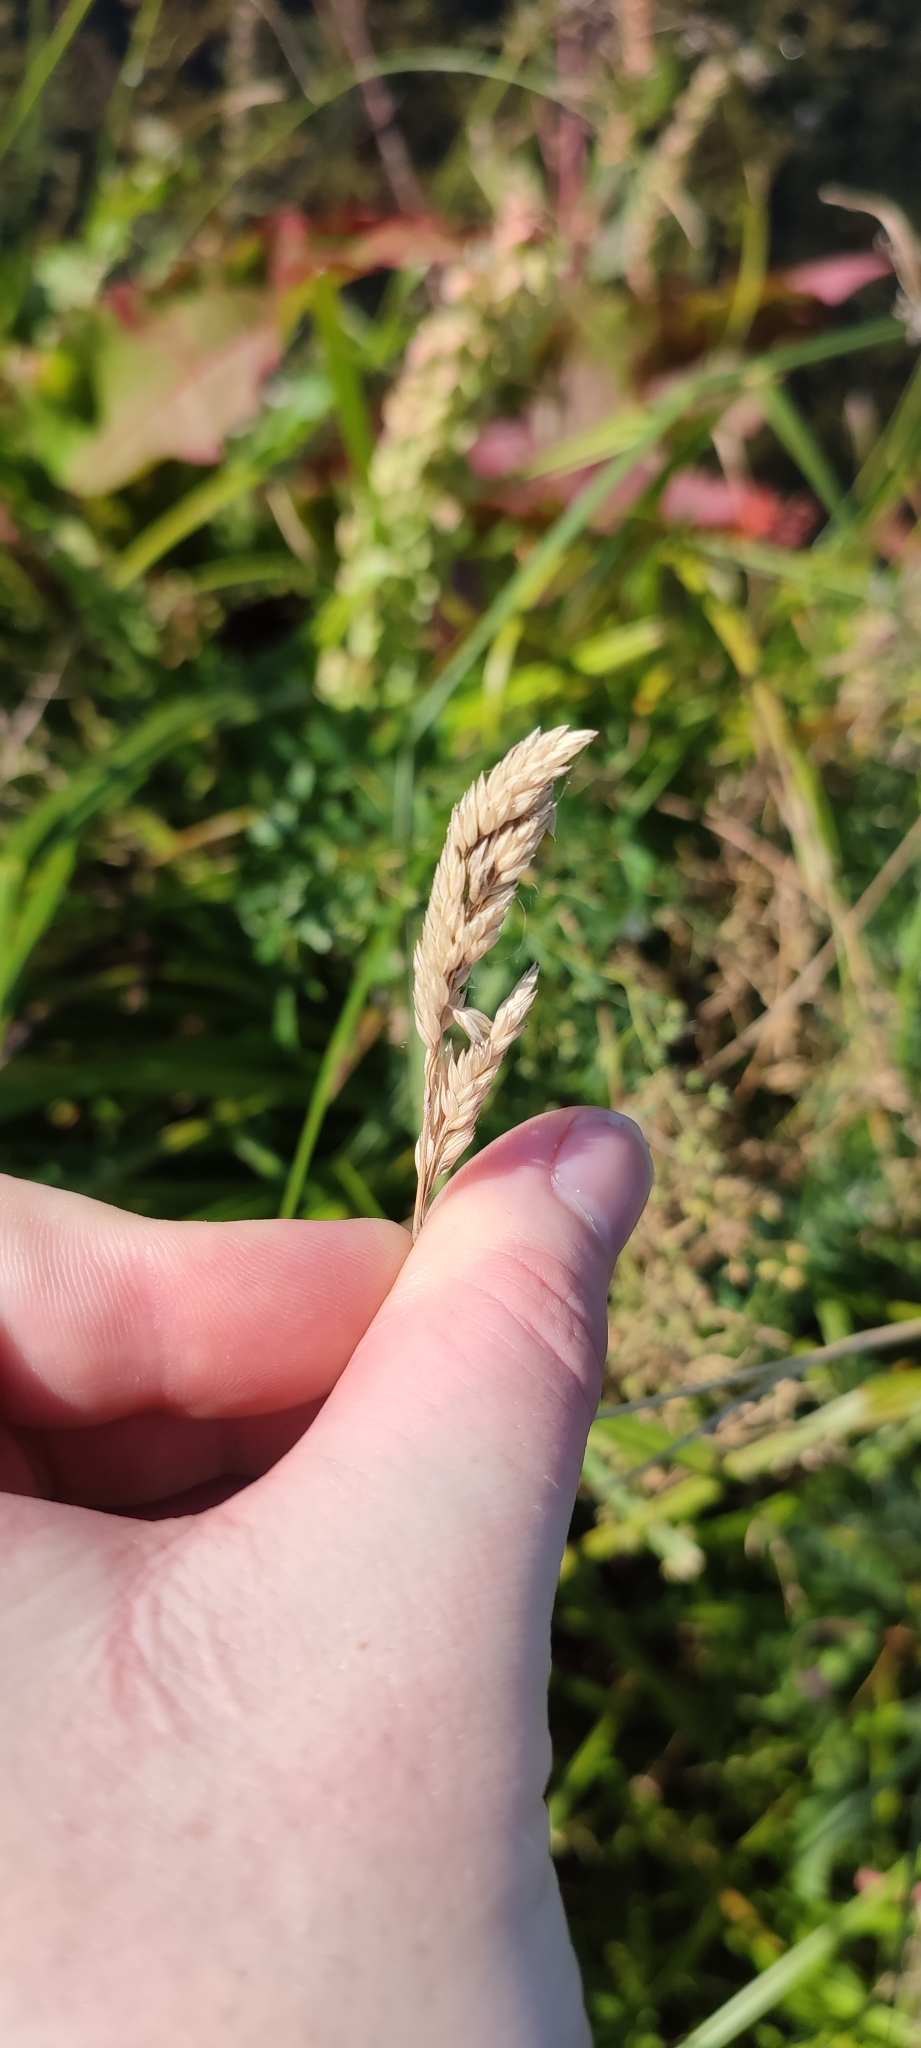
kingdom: Plantae
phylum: Tracheophyta
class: Liliopsida
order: Poales
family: Poaceae
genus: Phalaris
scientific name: Phalaris arundinacea
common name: Reed canary-grass
